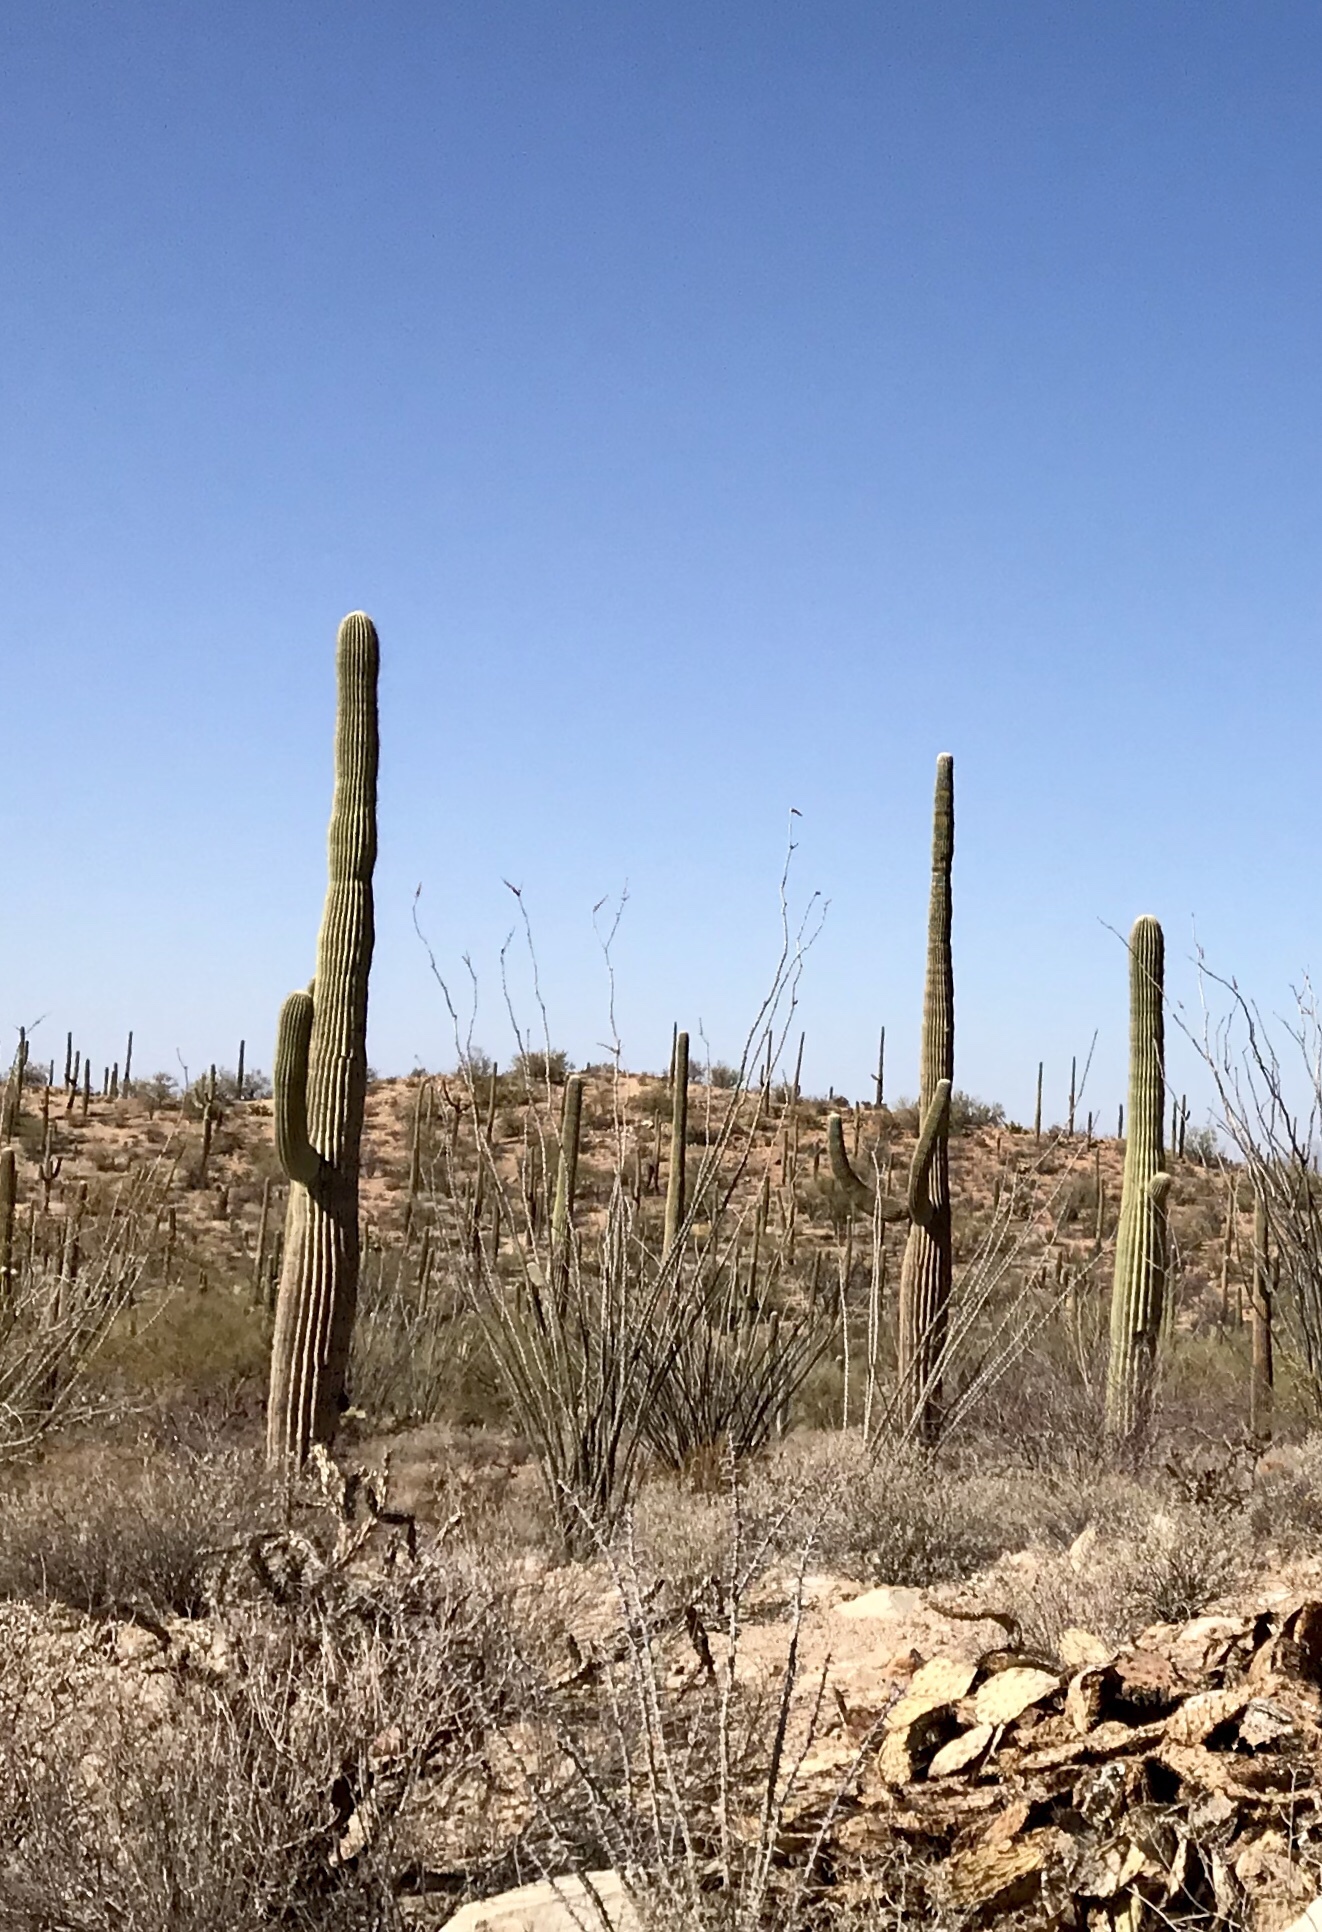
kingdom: Plantae
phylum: Tracheophyta
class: Magnoliopsida
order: Caryophyllales
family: Cactaceae
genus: Carnegiea
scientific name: Carnegiea gigantea
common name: Saguaro
